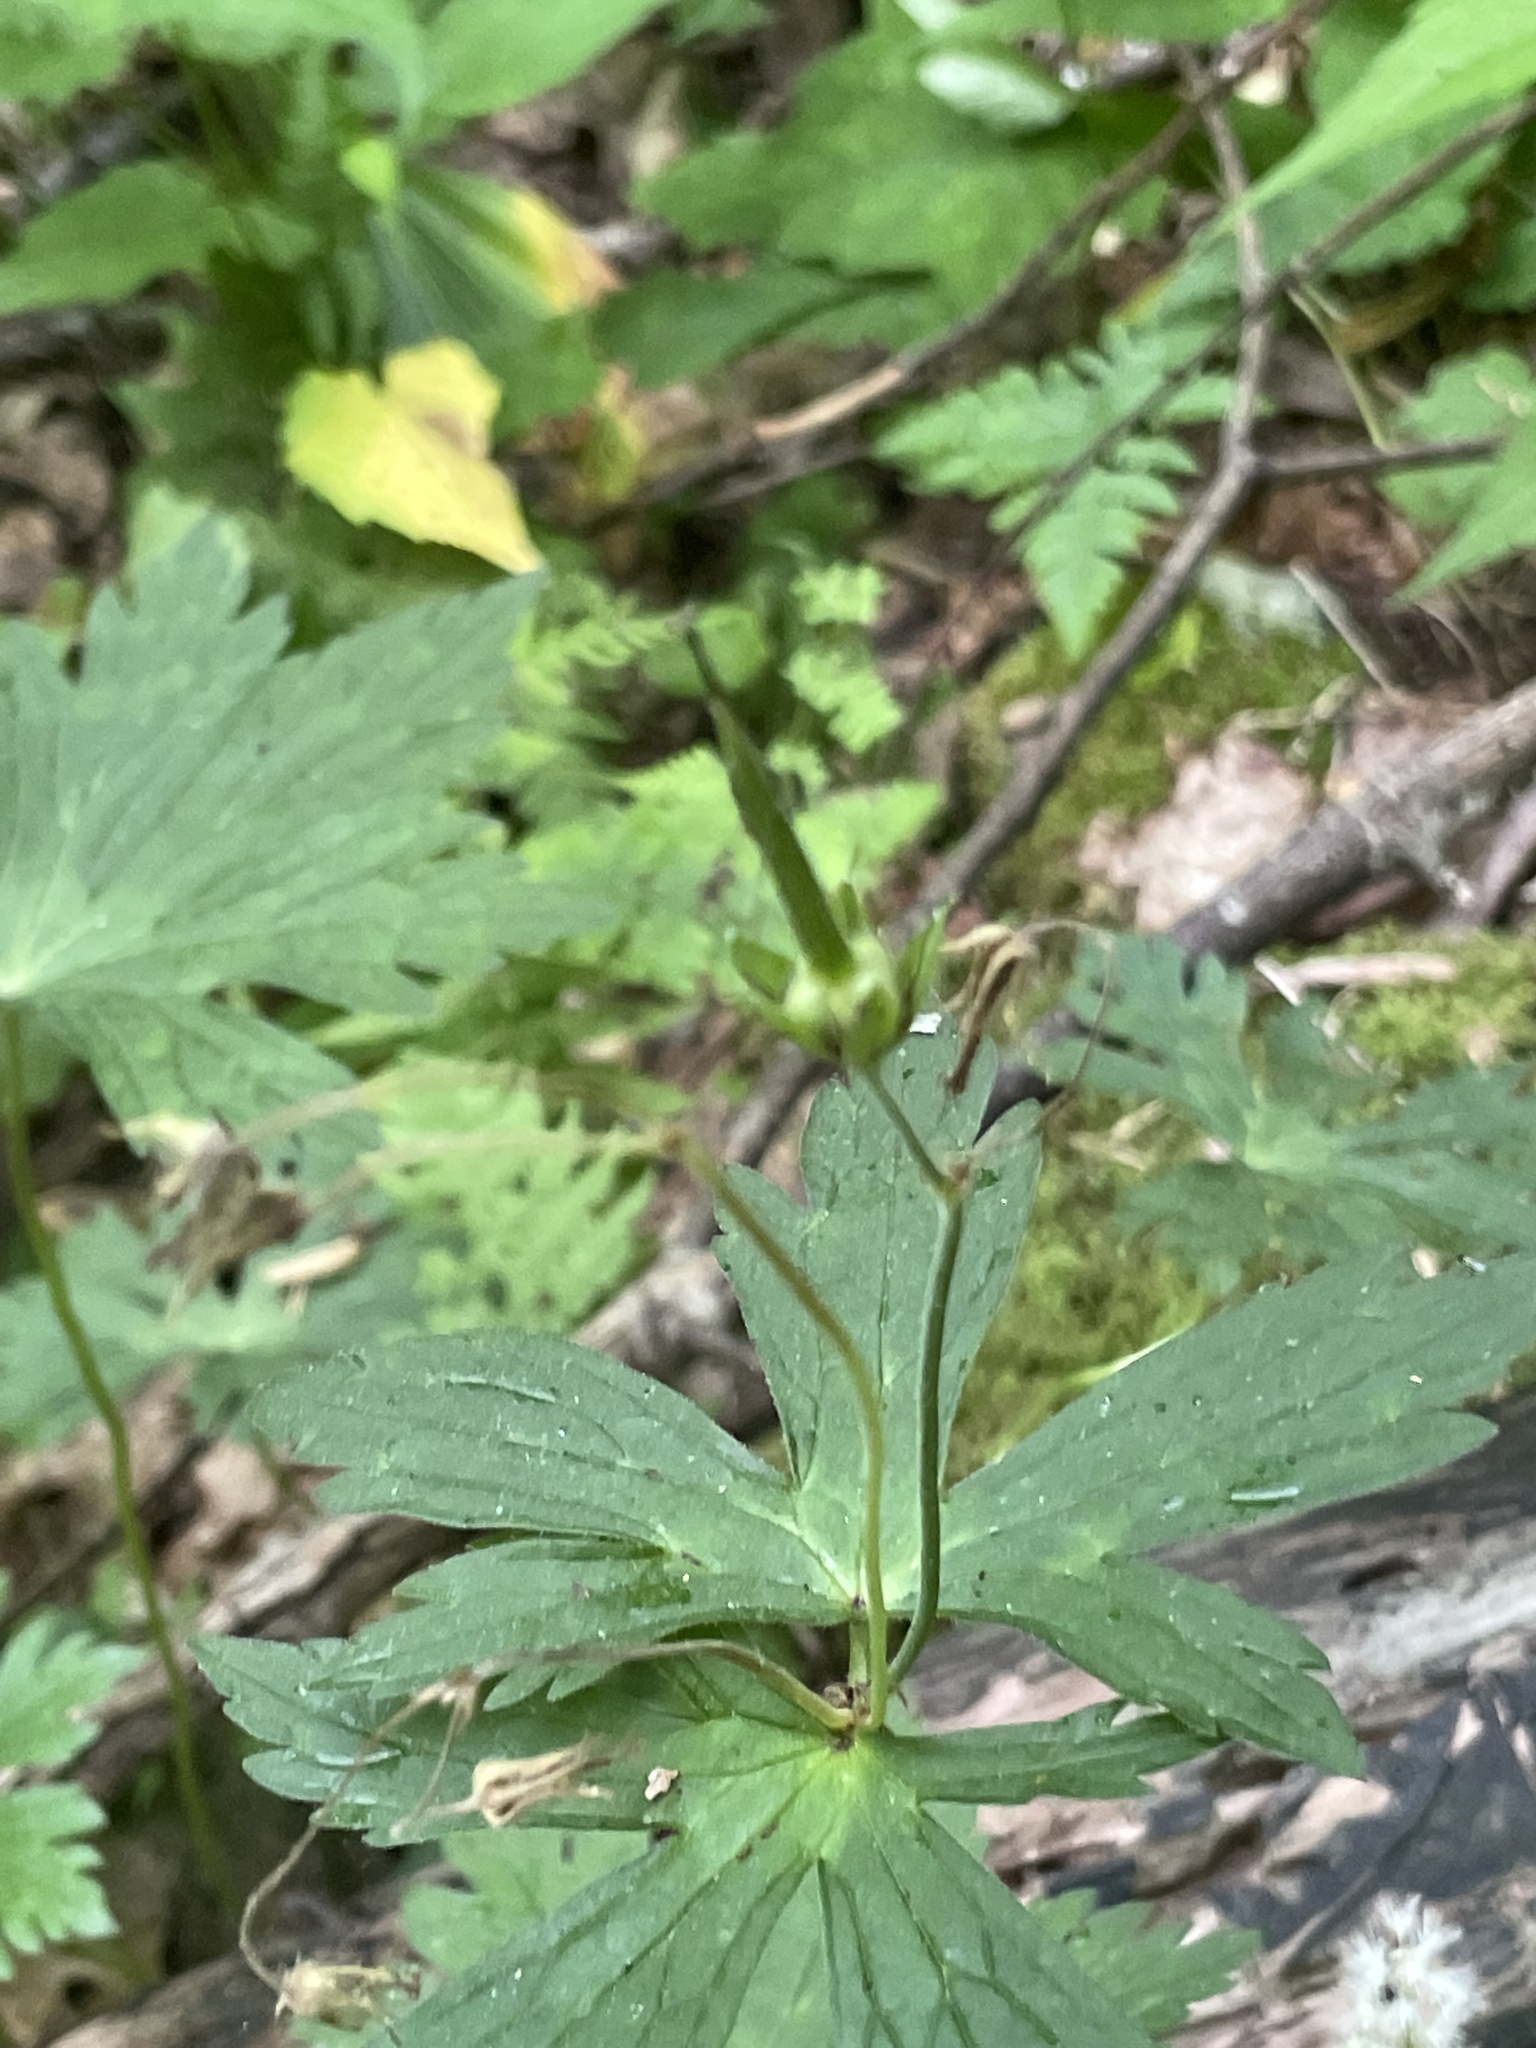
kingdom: Plantae
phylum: Tracheophyta
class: Magnoliopsida
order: Geraniales
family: Geraniaceae
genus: Geranium
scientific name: Geranium maculatum
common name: Spotted geranium
